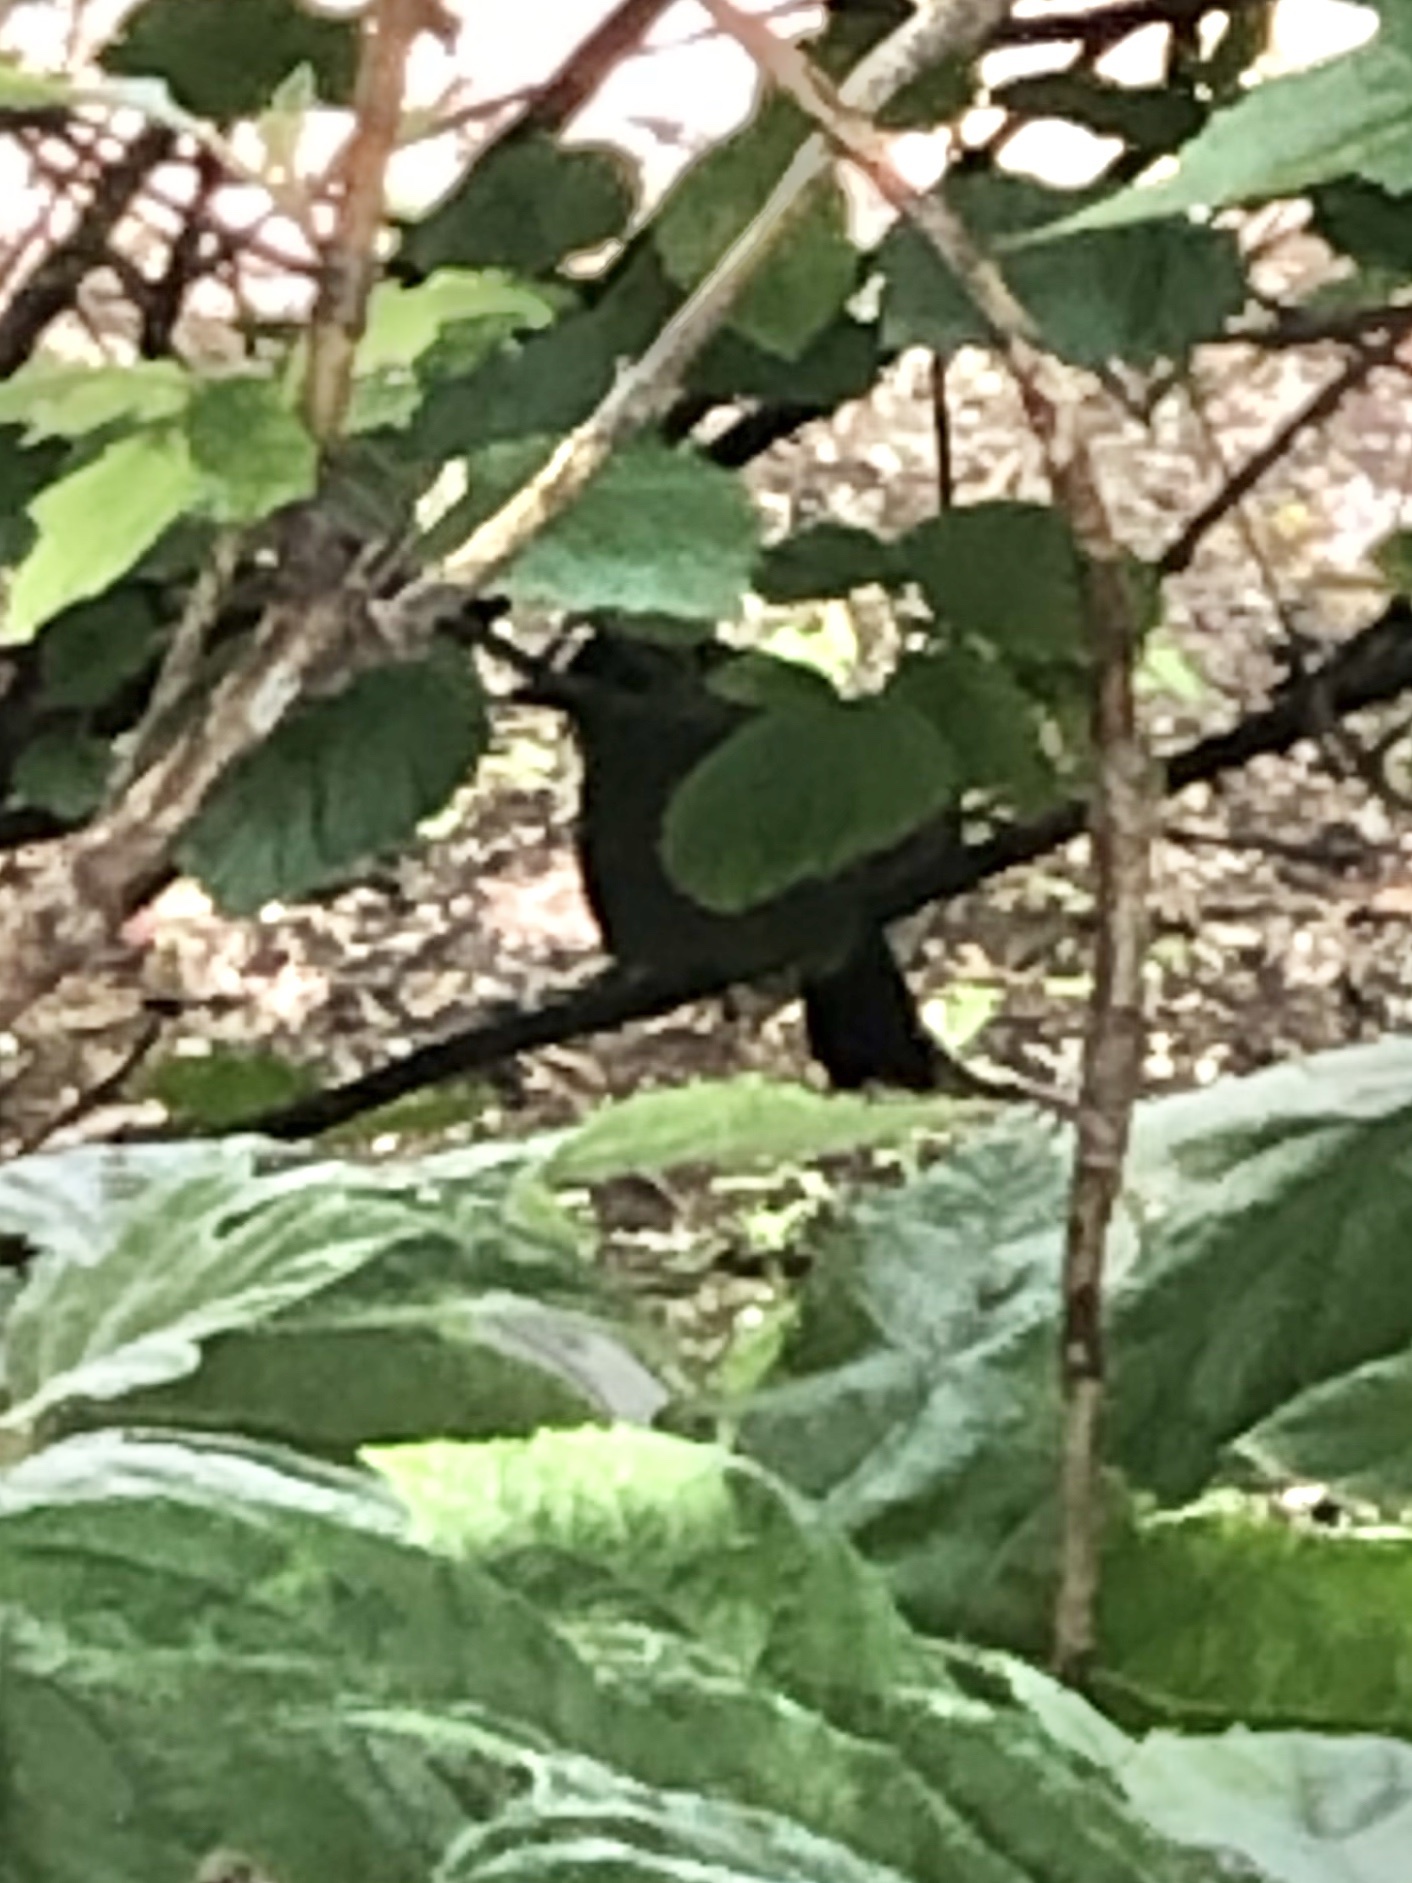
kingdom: Animalia
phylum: Chordata
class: Aves
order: Passeriformes
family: Mimidae
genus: Dumetella
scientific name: Dumetella carolinensis
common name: Gray catbird
